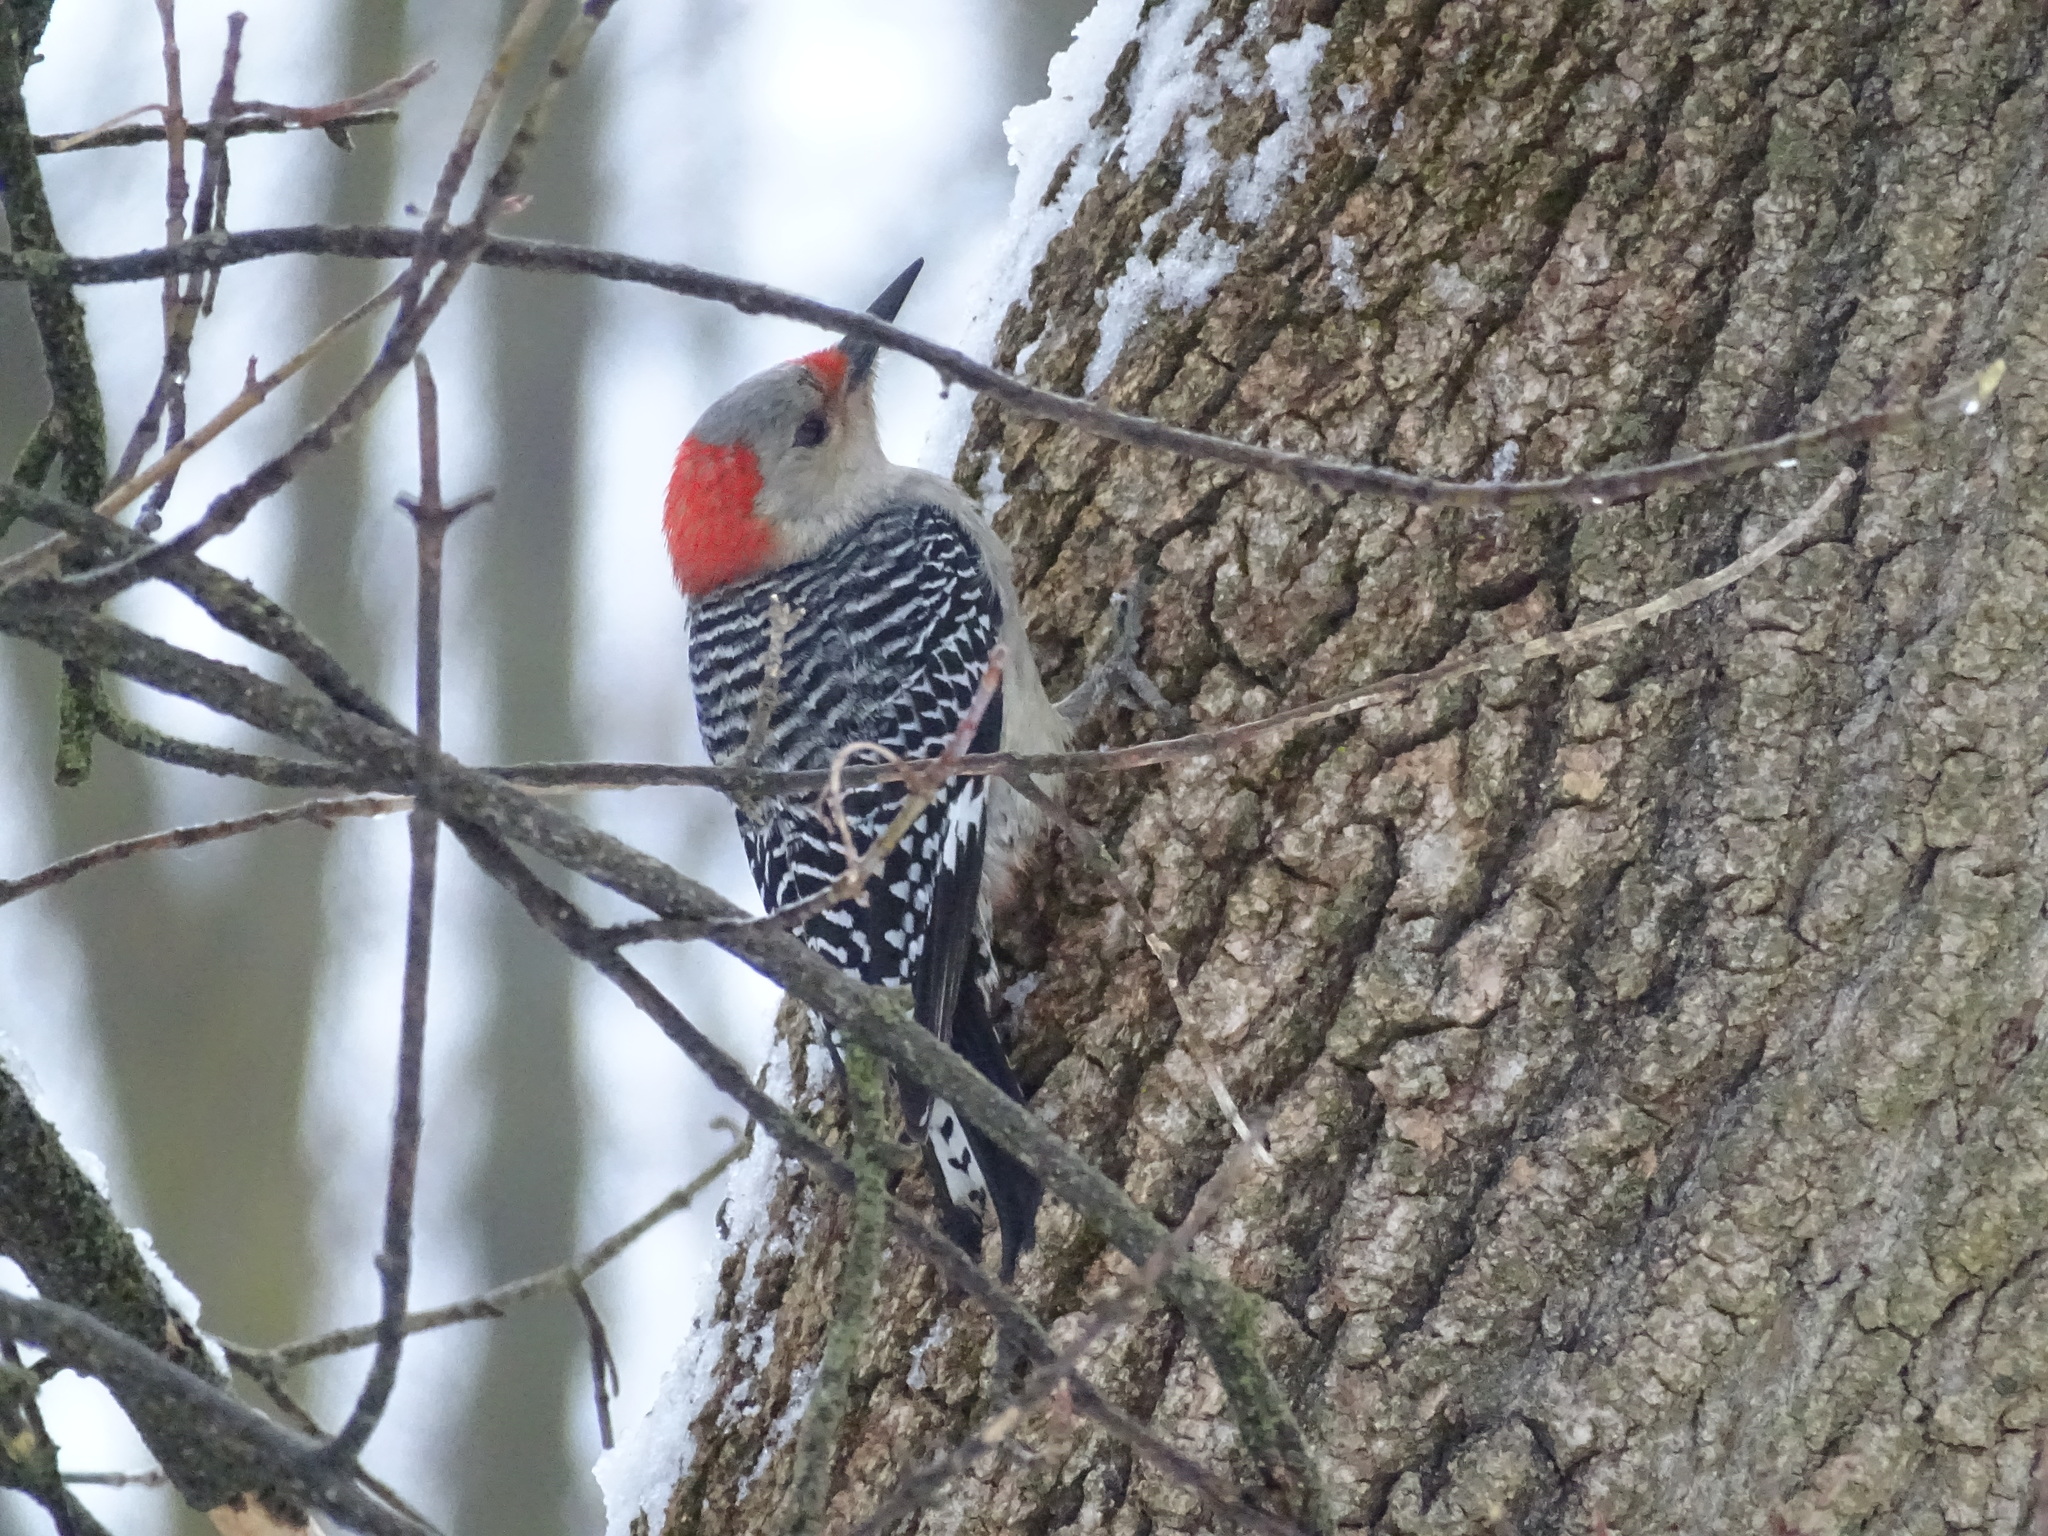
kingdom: Animalia
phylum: Chordata
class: Aves
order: Piciformes
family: Picidae
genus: Melanerpes
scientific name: Melanerpes carolinus
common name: Red-bellied woodpecker
